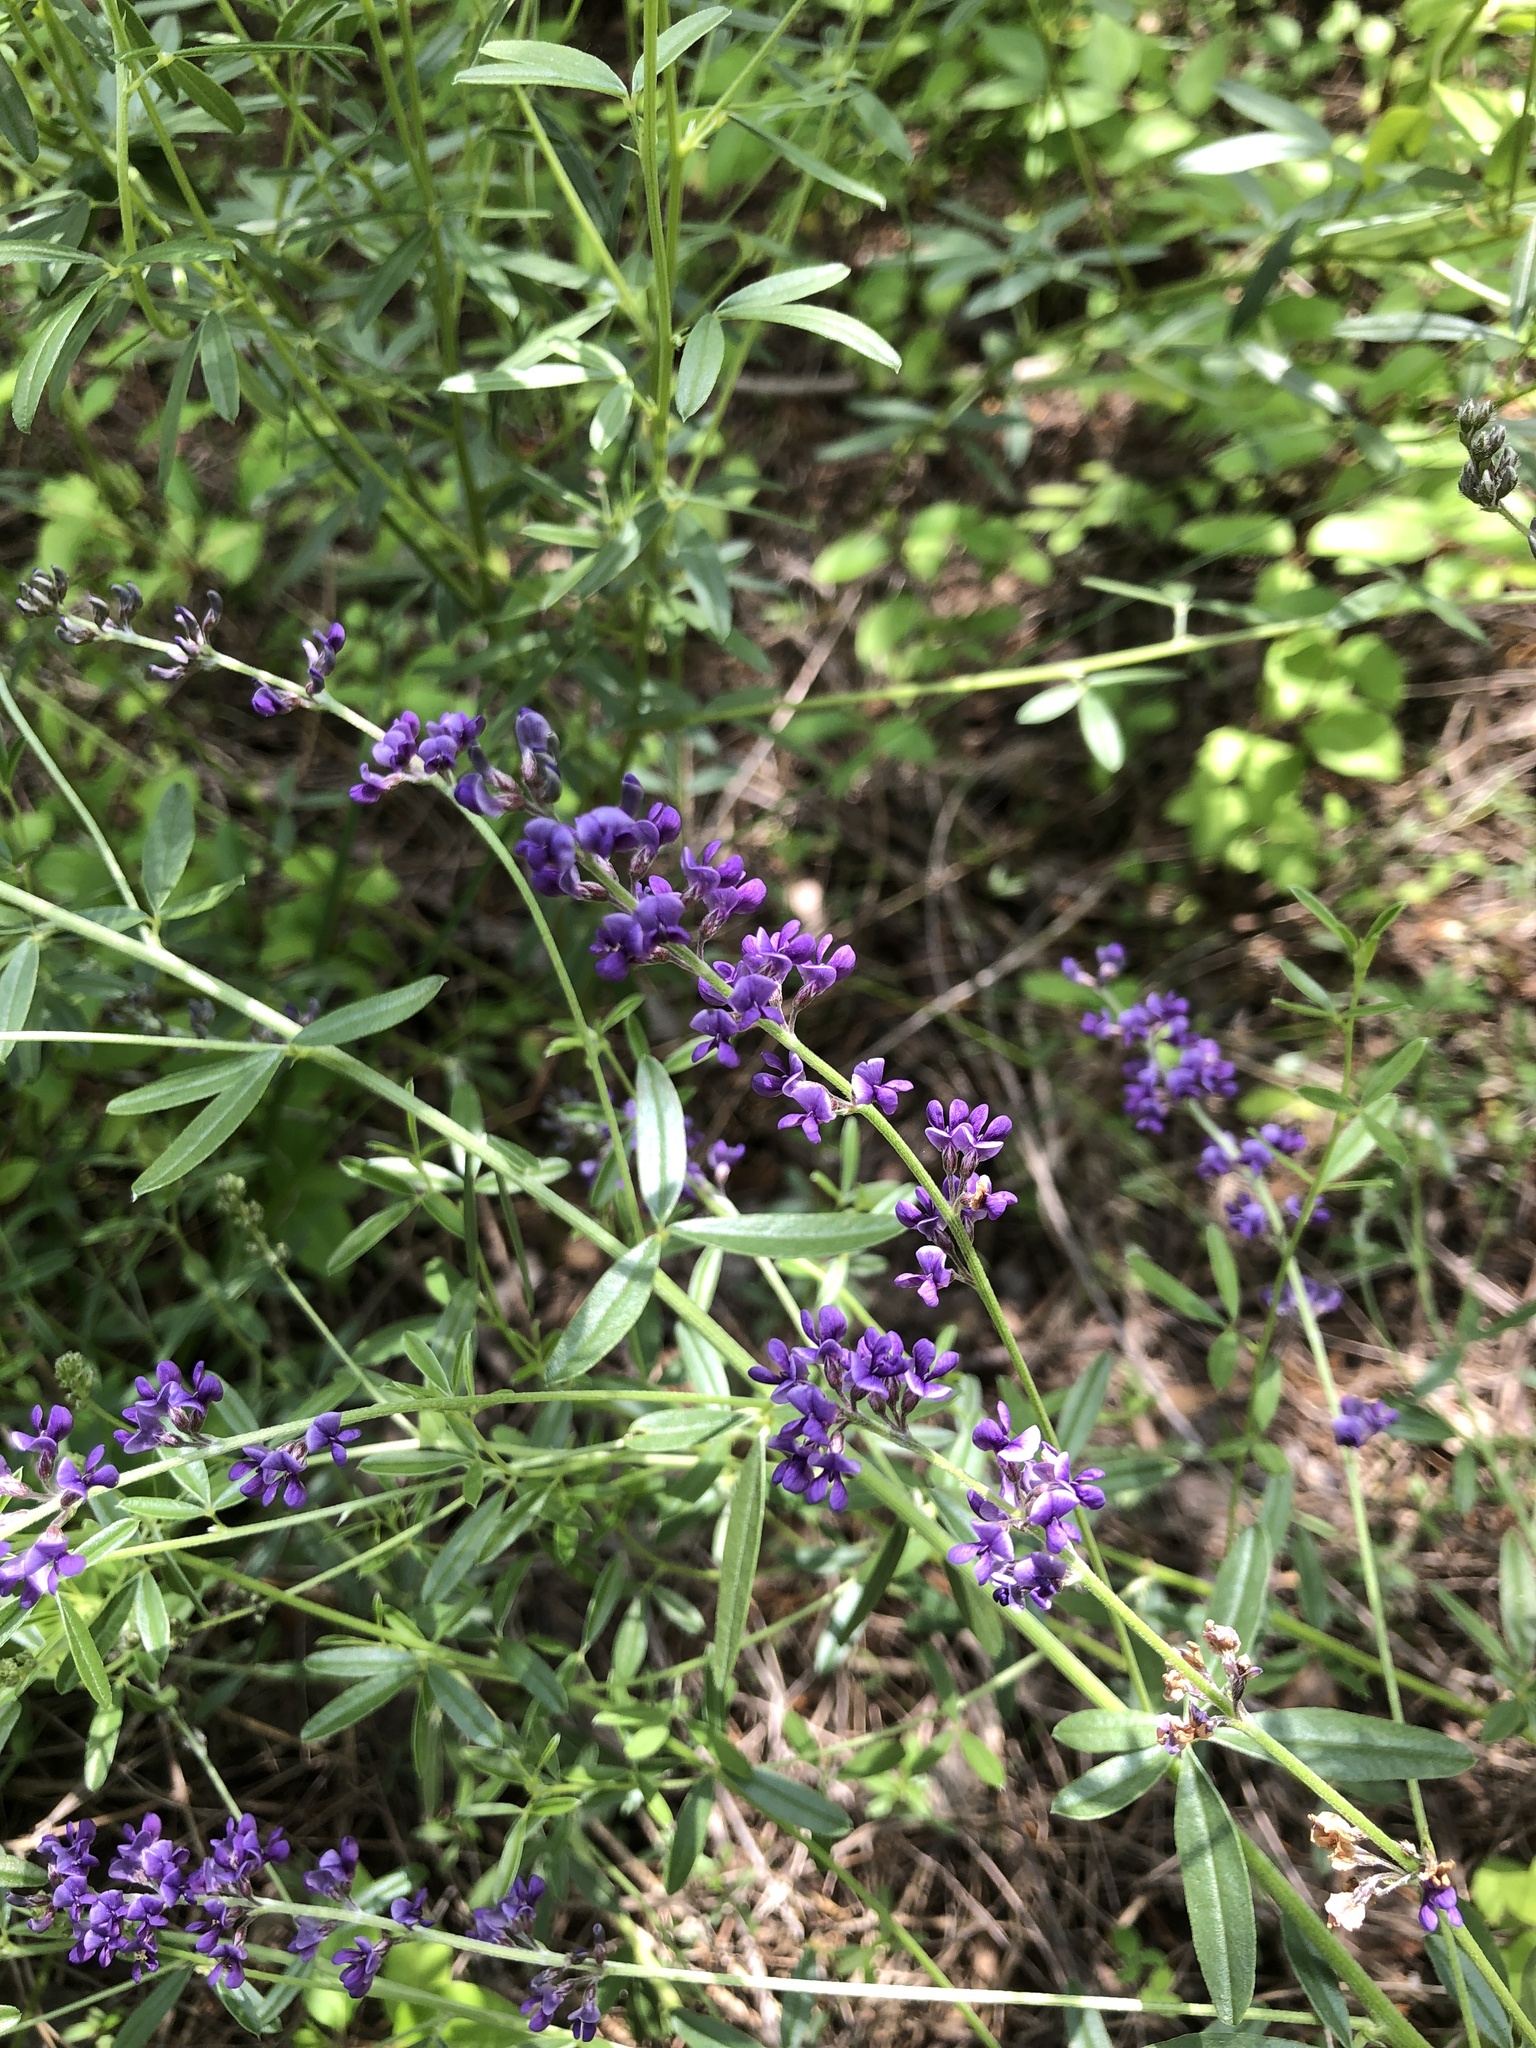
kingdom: Plantae
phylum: Tracheophyta
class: Magnoliopsida
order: Fabales
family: Fabaceae
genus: Pediomelum
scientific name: Pediomelum tenuiflorum
